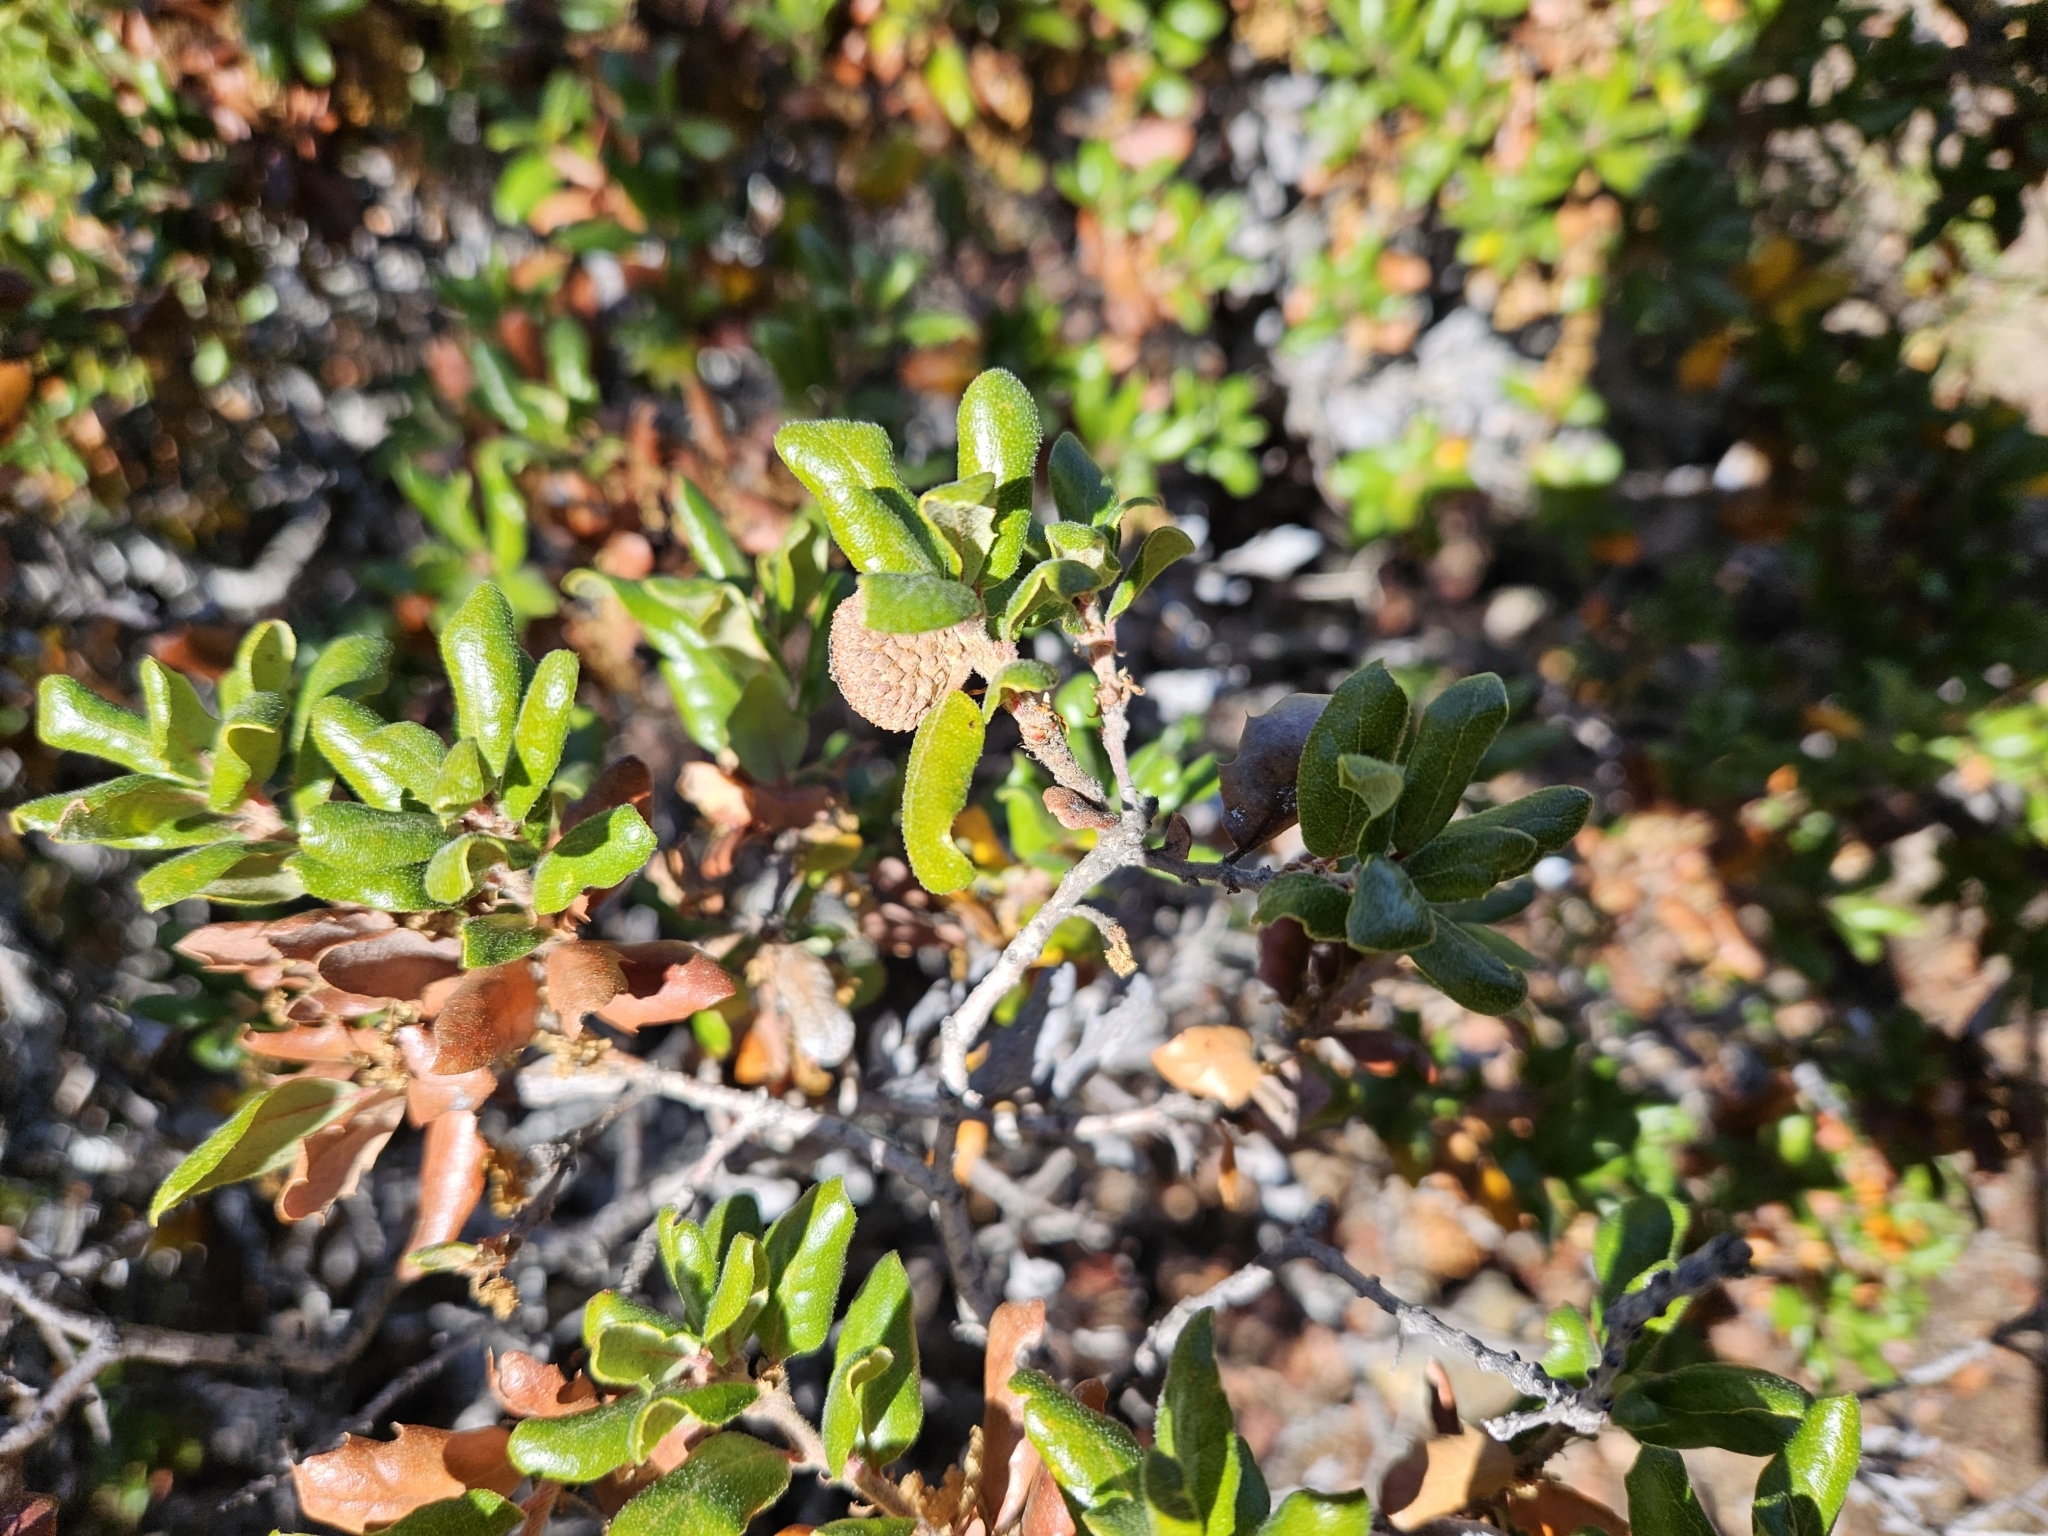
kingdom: Plantae
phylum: Tracheophyta
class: Magnoliopsida
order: Fagales
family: Fagaceae
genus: Quercus
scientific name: Quercus durata
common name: Leather oak
